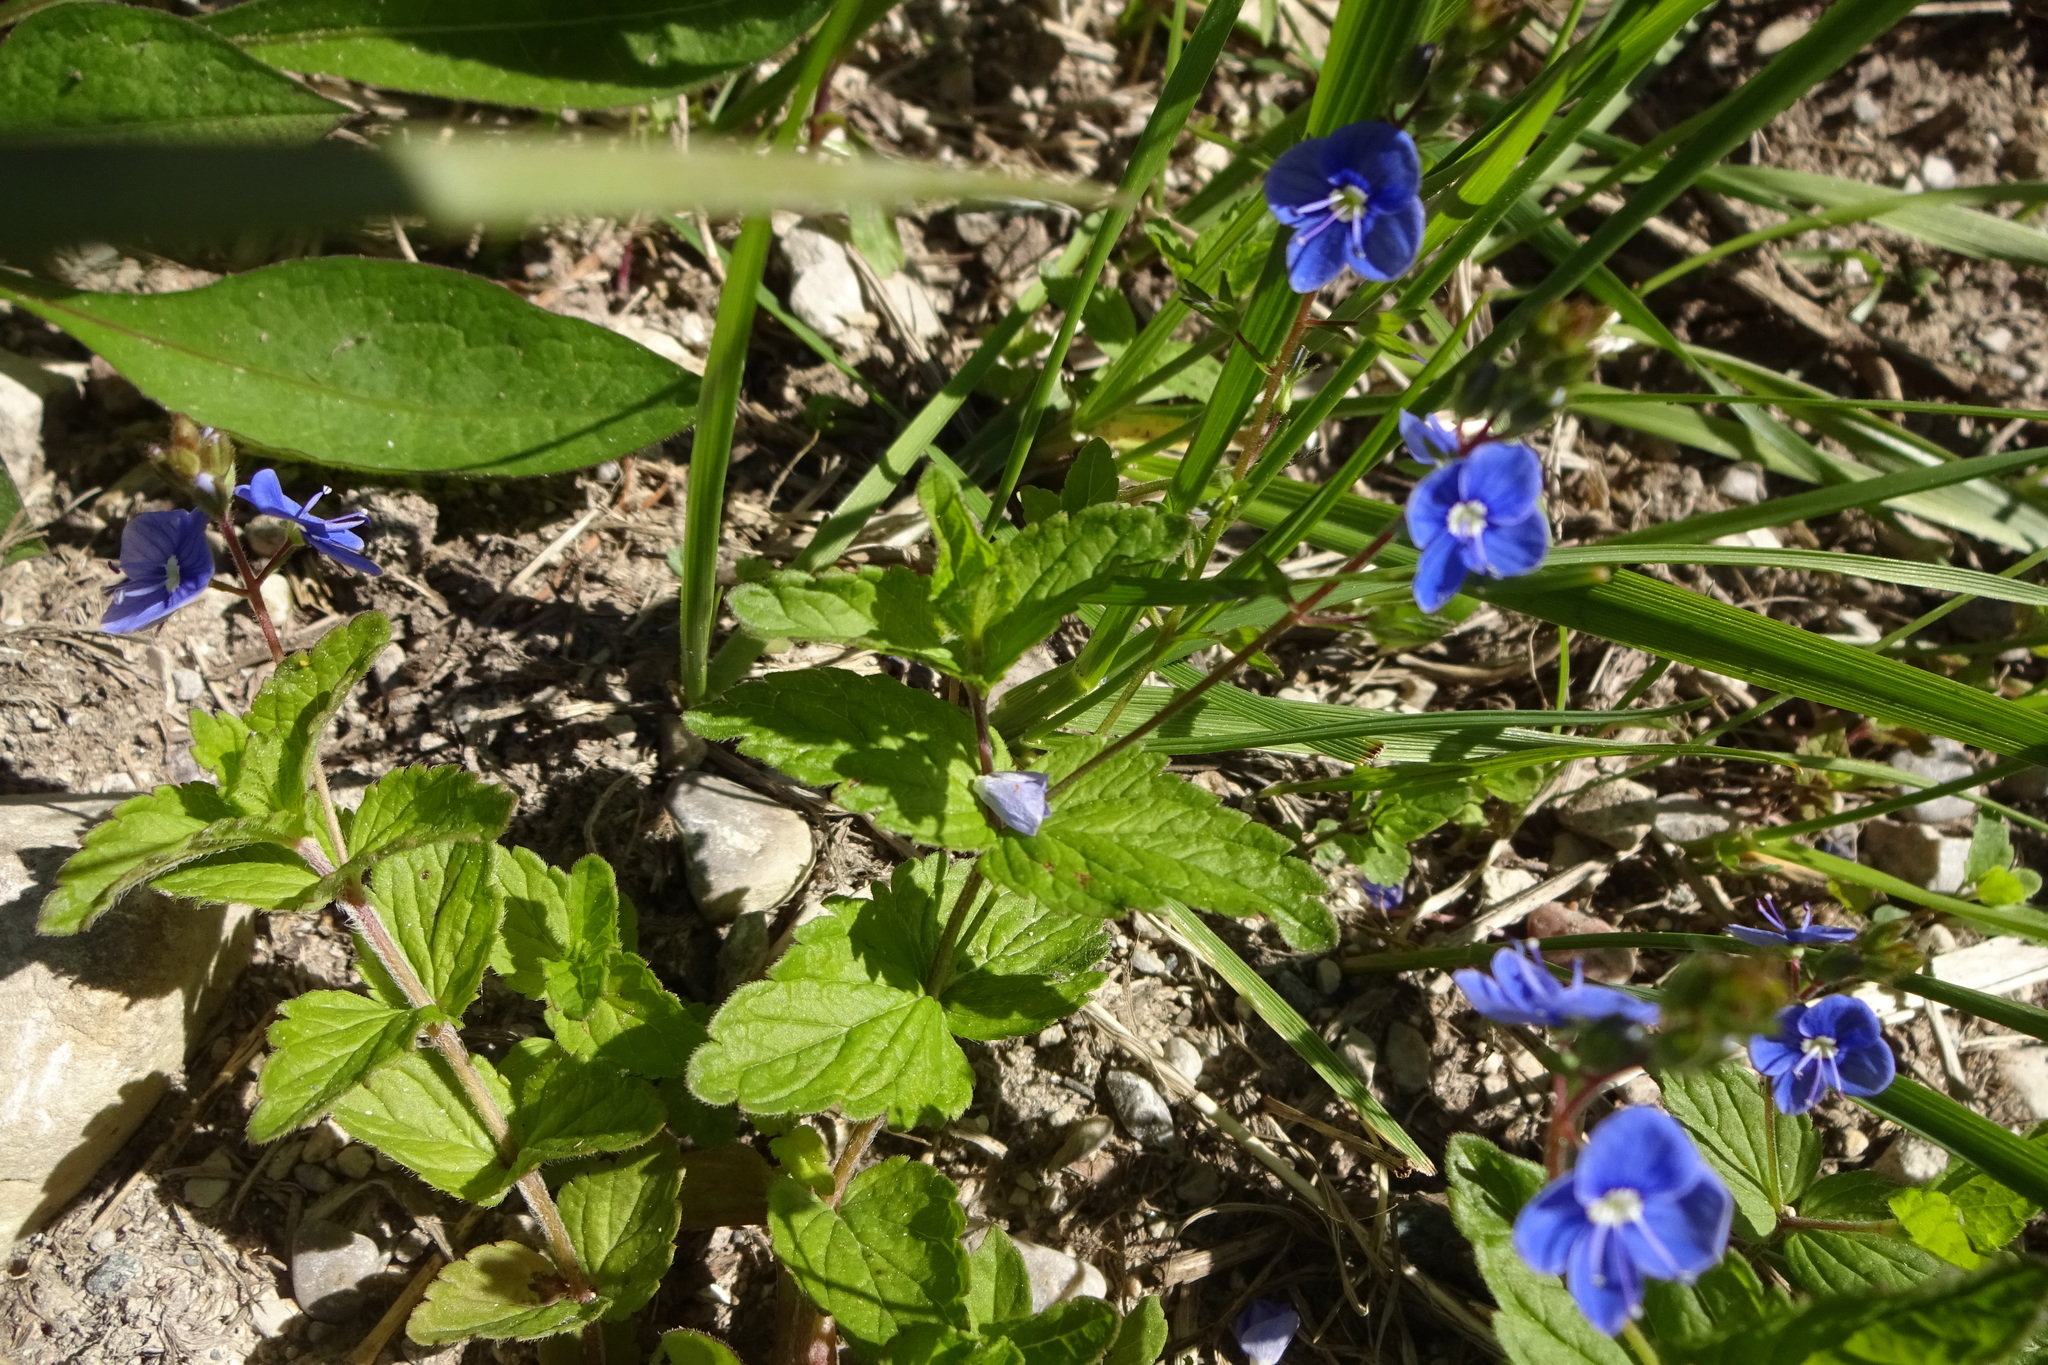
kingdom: Plantae
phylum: Tracheophyta
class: Magnoliopsida
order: Lamiales
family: Plantaginaceae
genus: Veronica
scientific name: Veronica chamaedrys
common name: Germander speedwell
